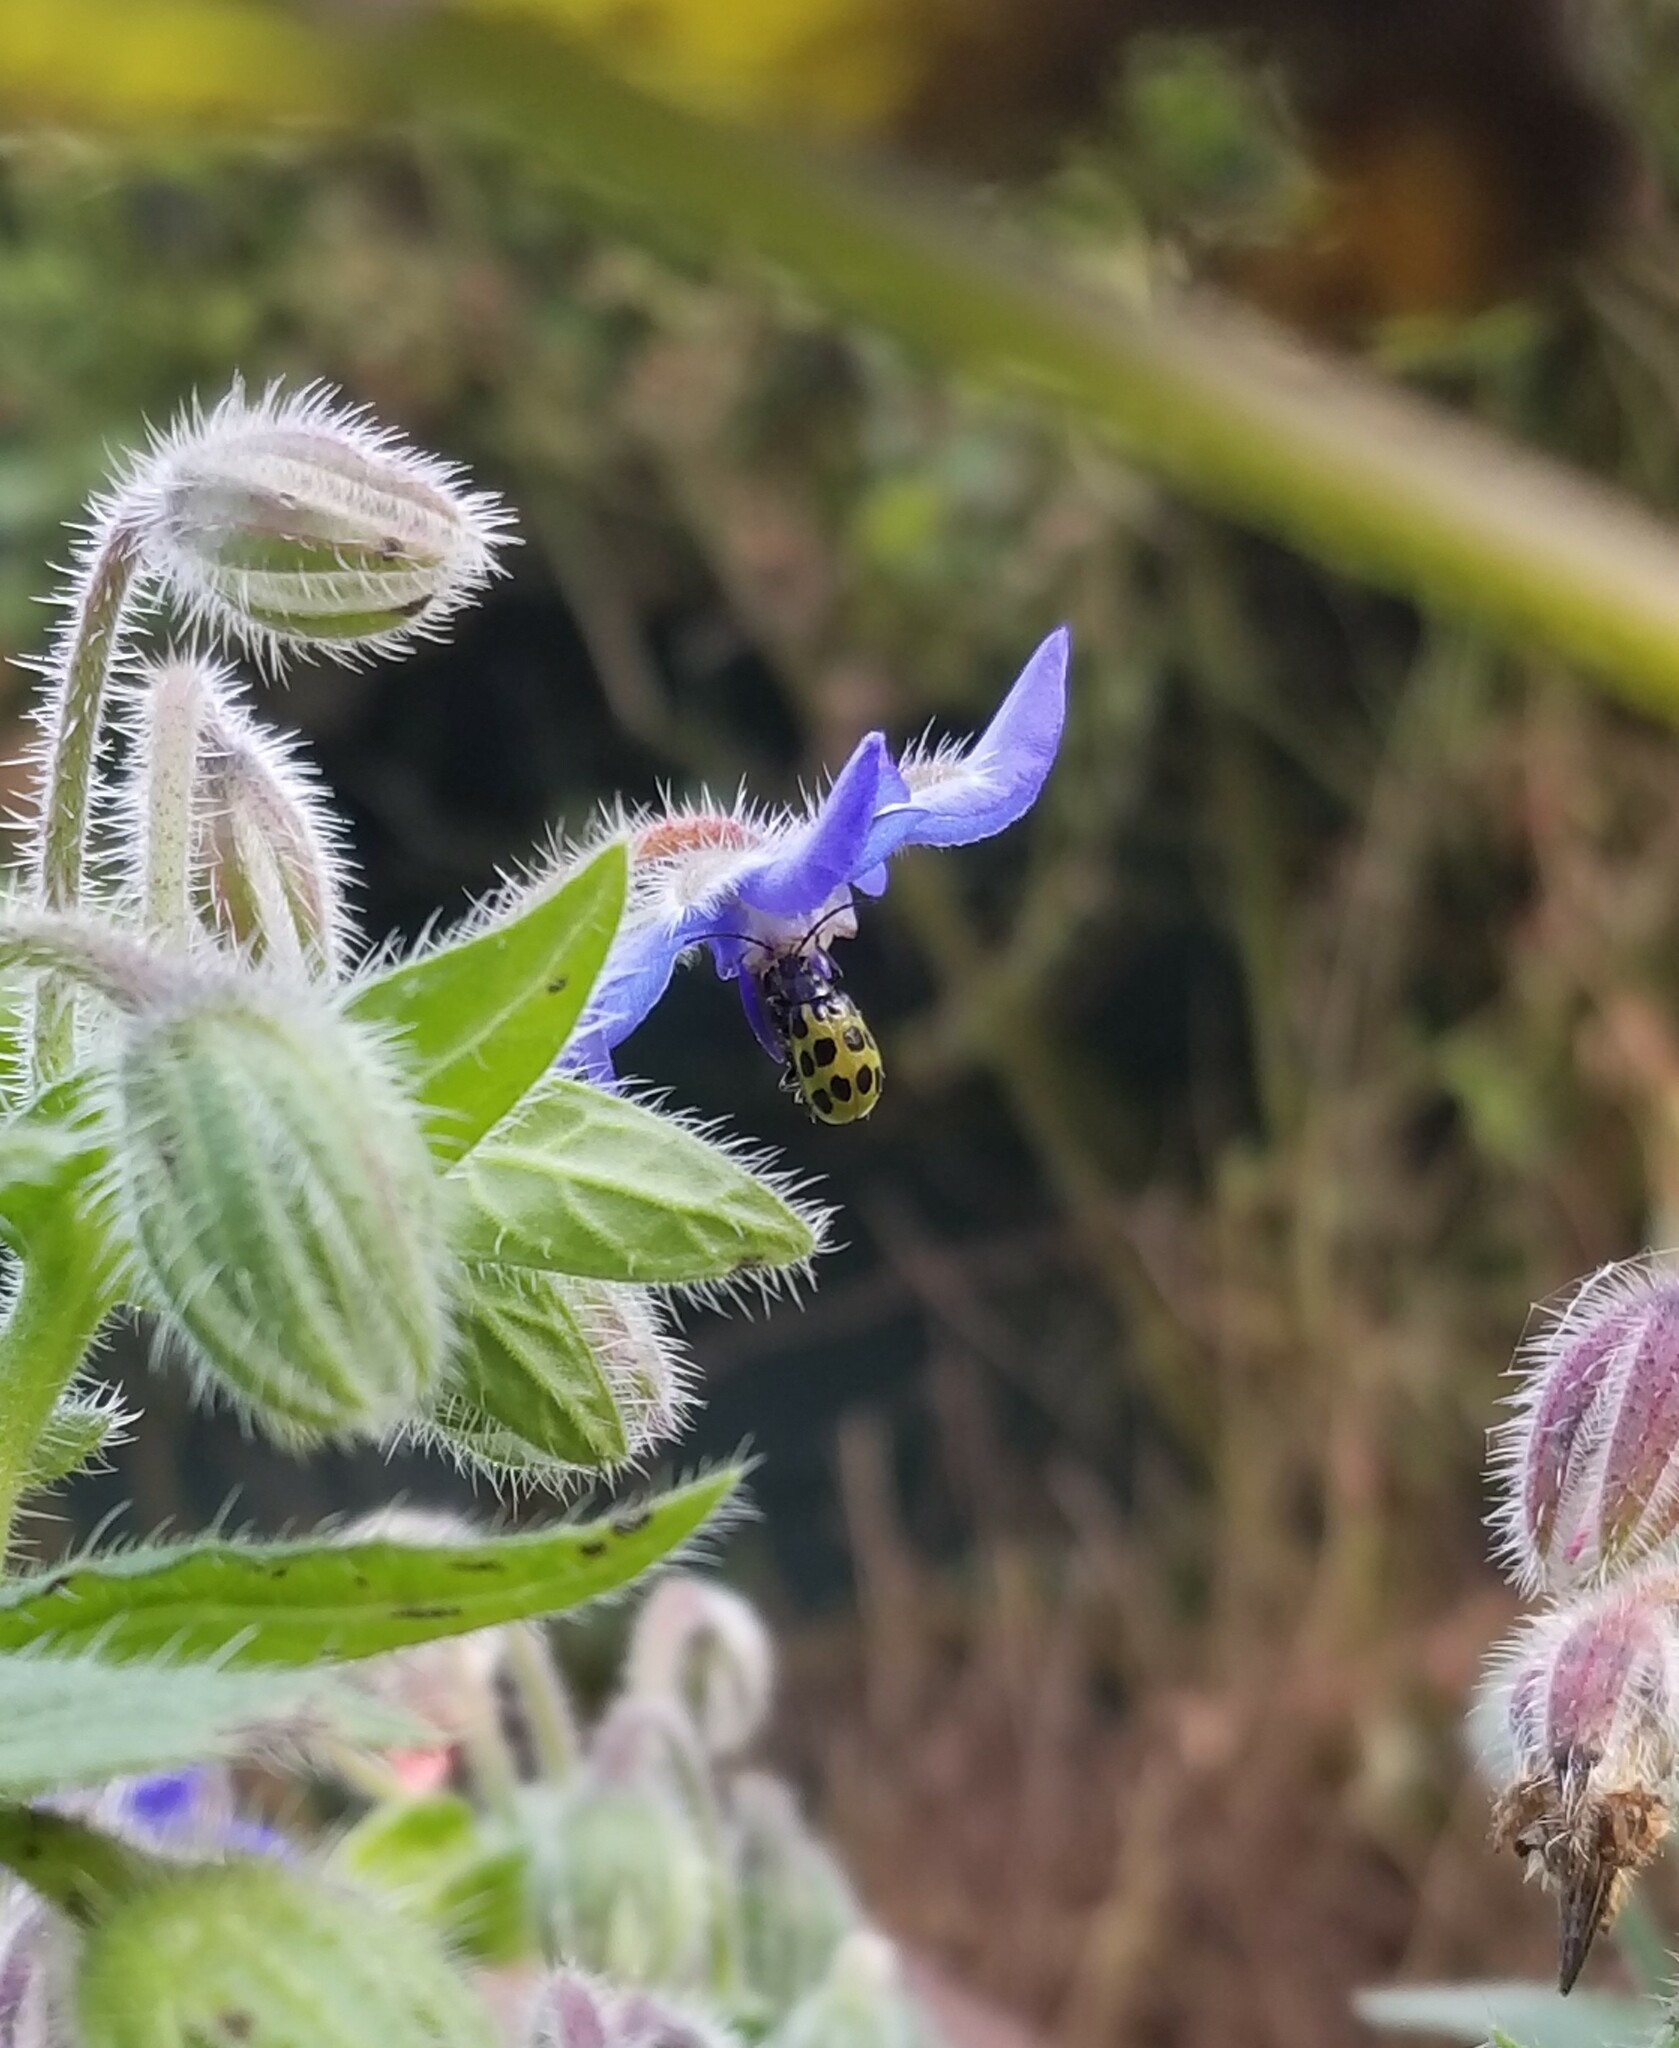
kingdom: Animalia
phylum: Arthropoda
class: Insecta
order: Coleoptera
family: Chrysomelidae
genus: Diabrotica
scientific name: Diabrotica undecimpunctata
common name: Spotted cucumber beetle
